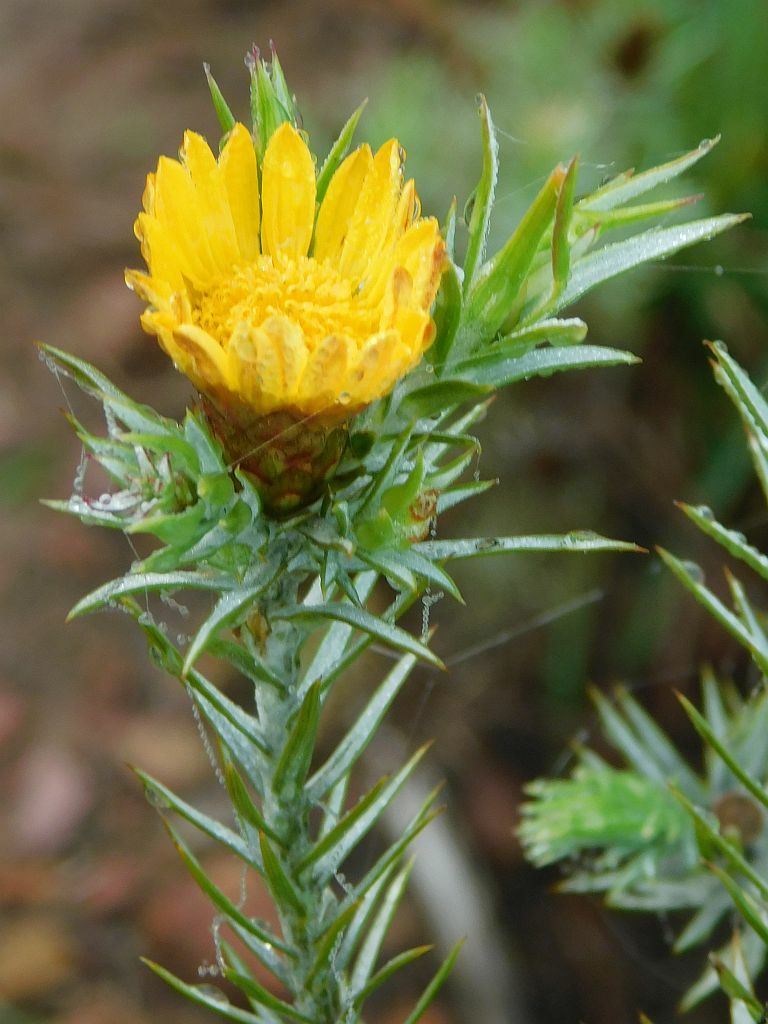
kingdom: Plantae
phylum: Tracheophyta
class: Magnoliopsida
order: Asterales
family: Asteraceae
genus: Oedera
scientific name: Oedera pungens
